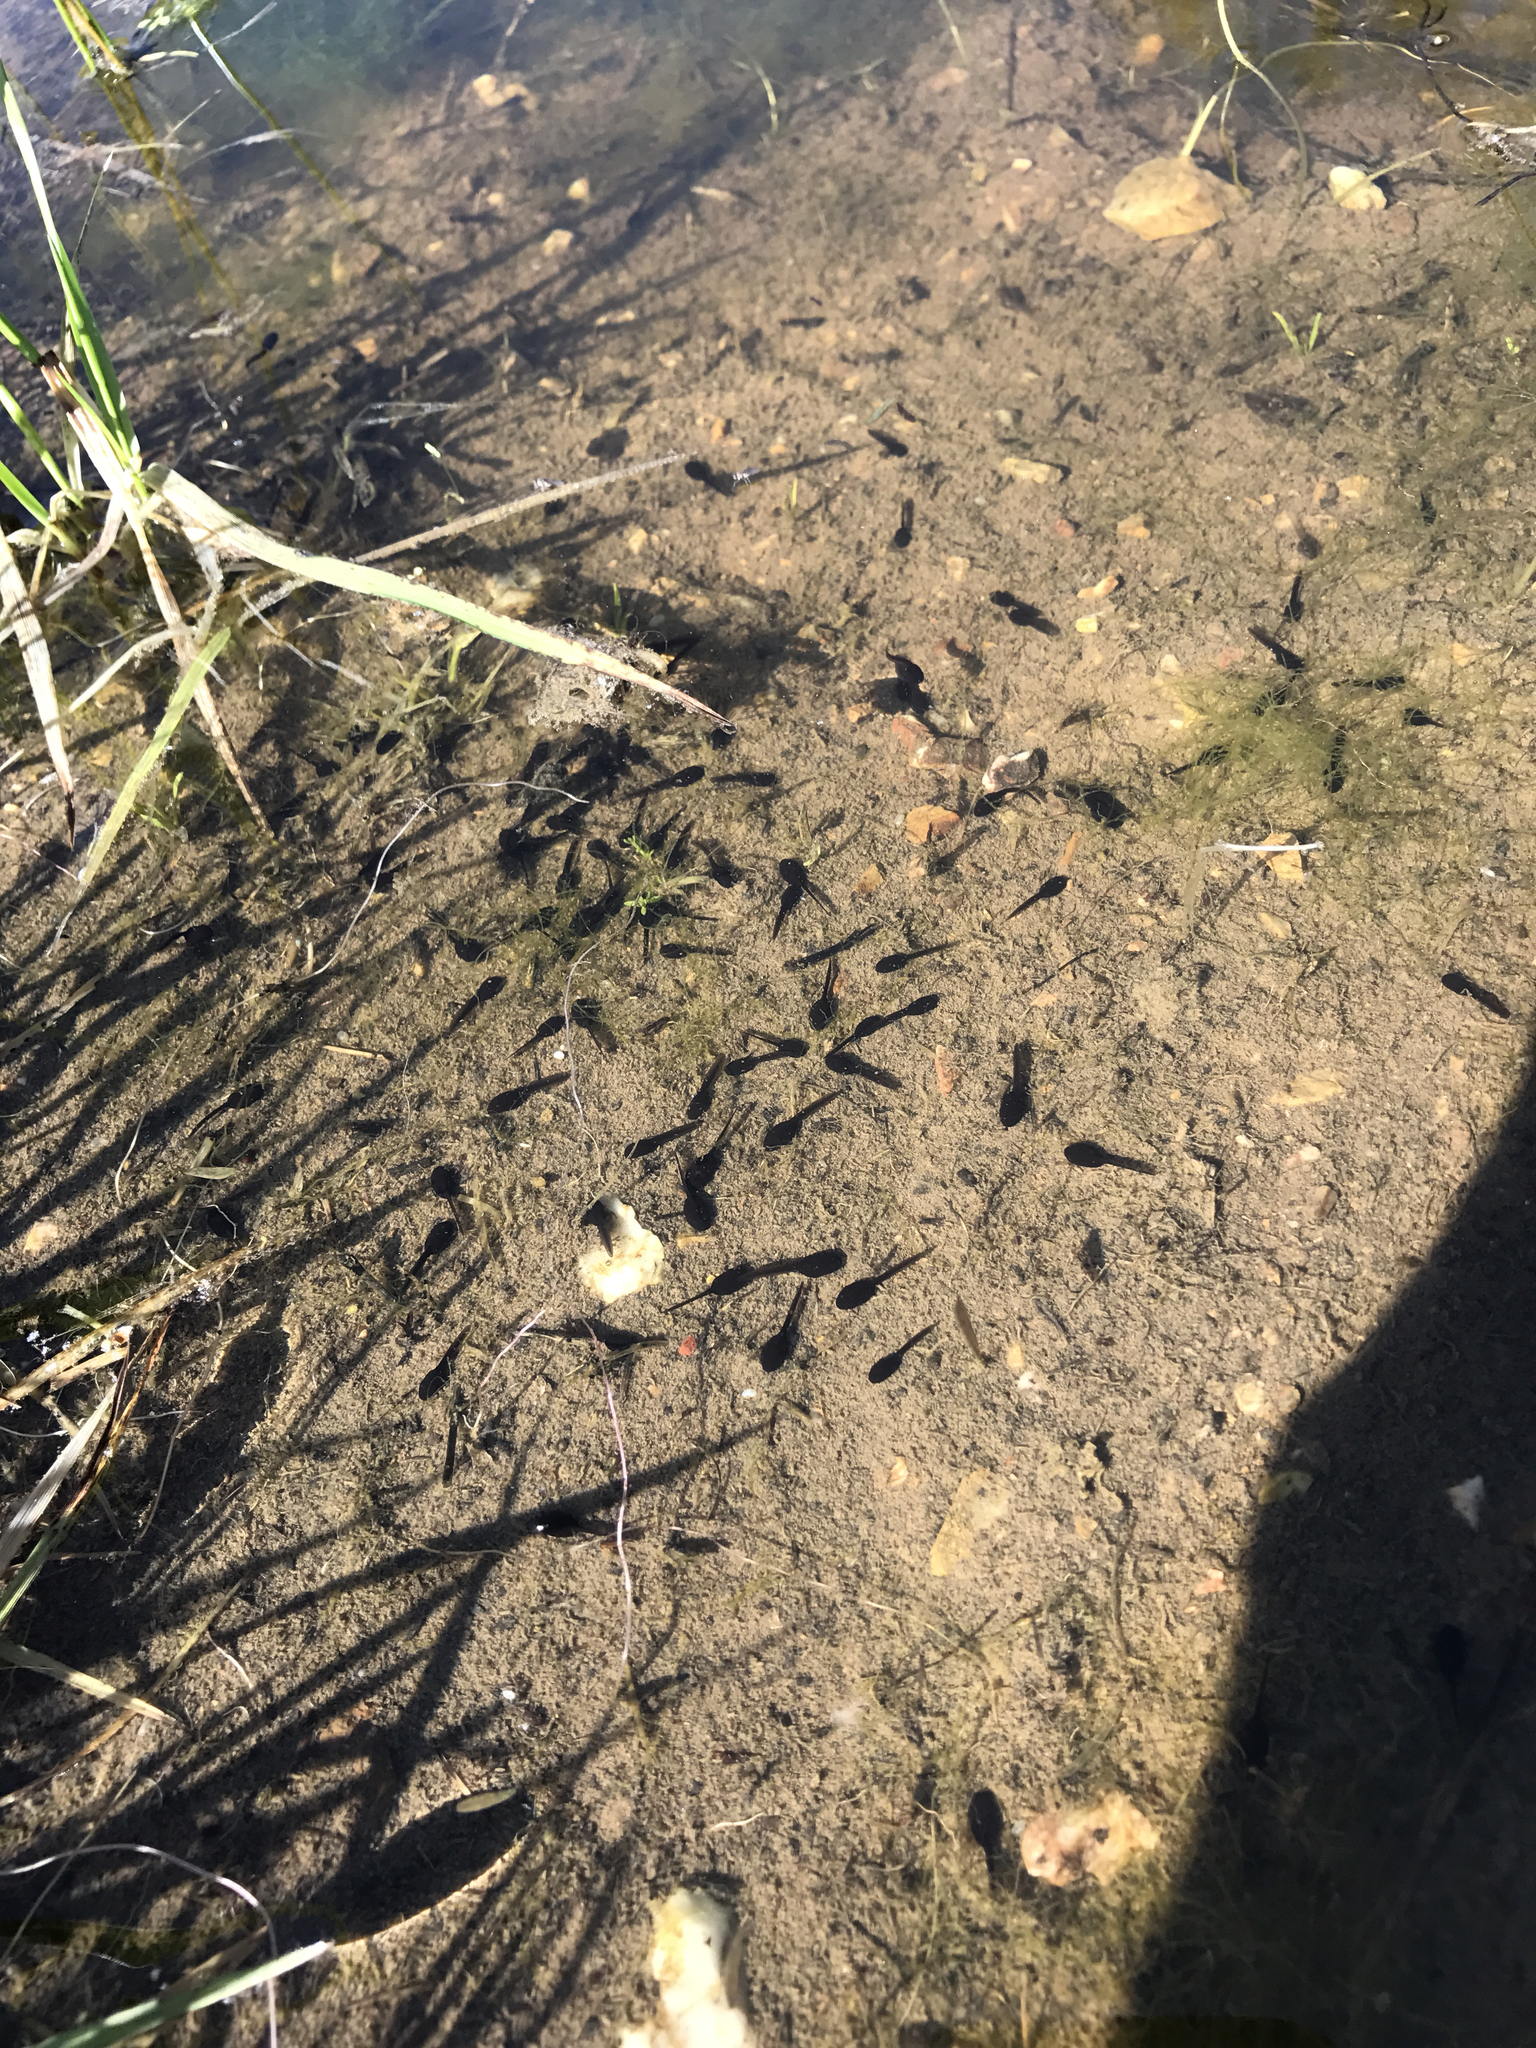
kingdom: Animalia
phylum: Chordata
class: Amphibia
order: Anura
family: Bufonidae
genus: Anaxyrus
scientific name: Anaxyrus boreas
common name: Western toad
